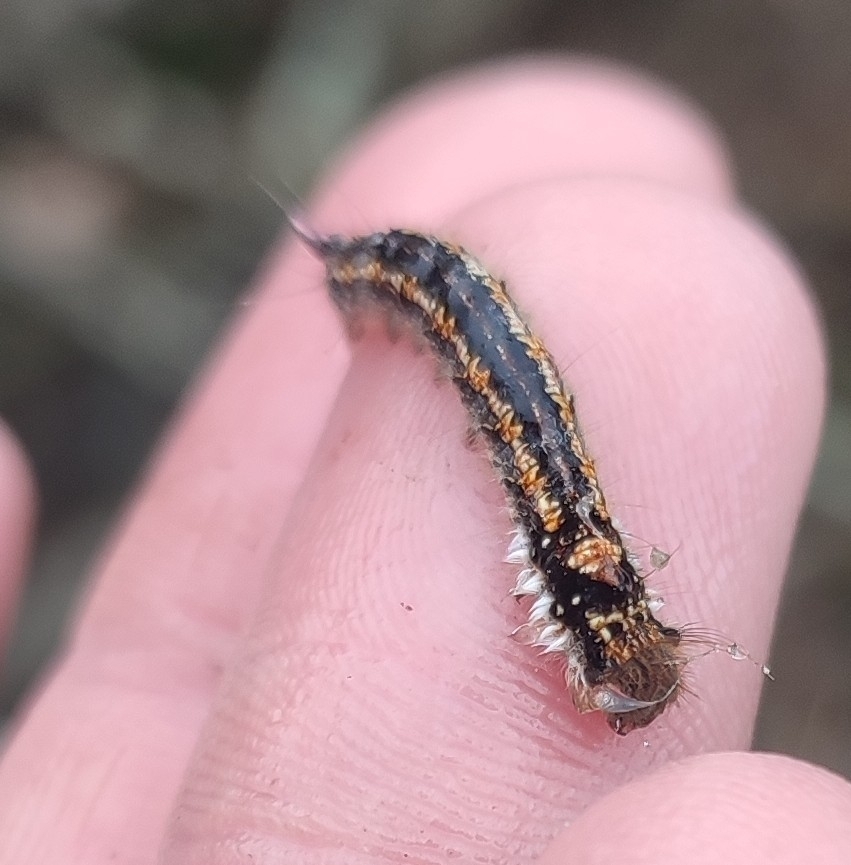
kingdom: Animalia
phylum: Arthropoda
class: Insecta
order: Lepidoptera
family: Lasiocampidae
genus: Euthrix
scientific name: Euthrix potatoria
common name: Drinker
